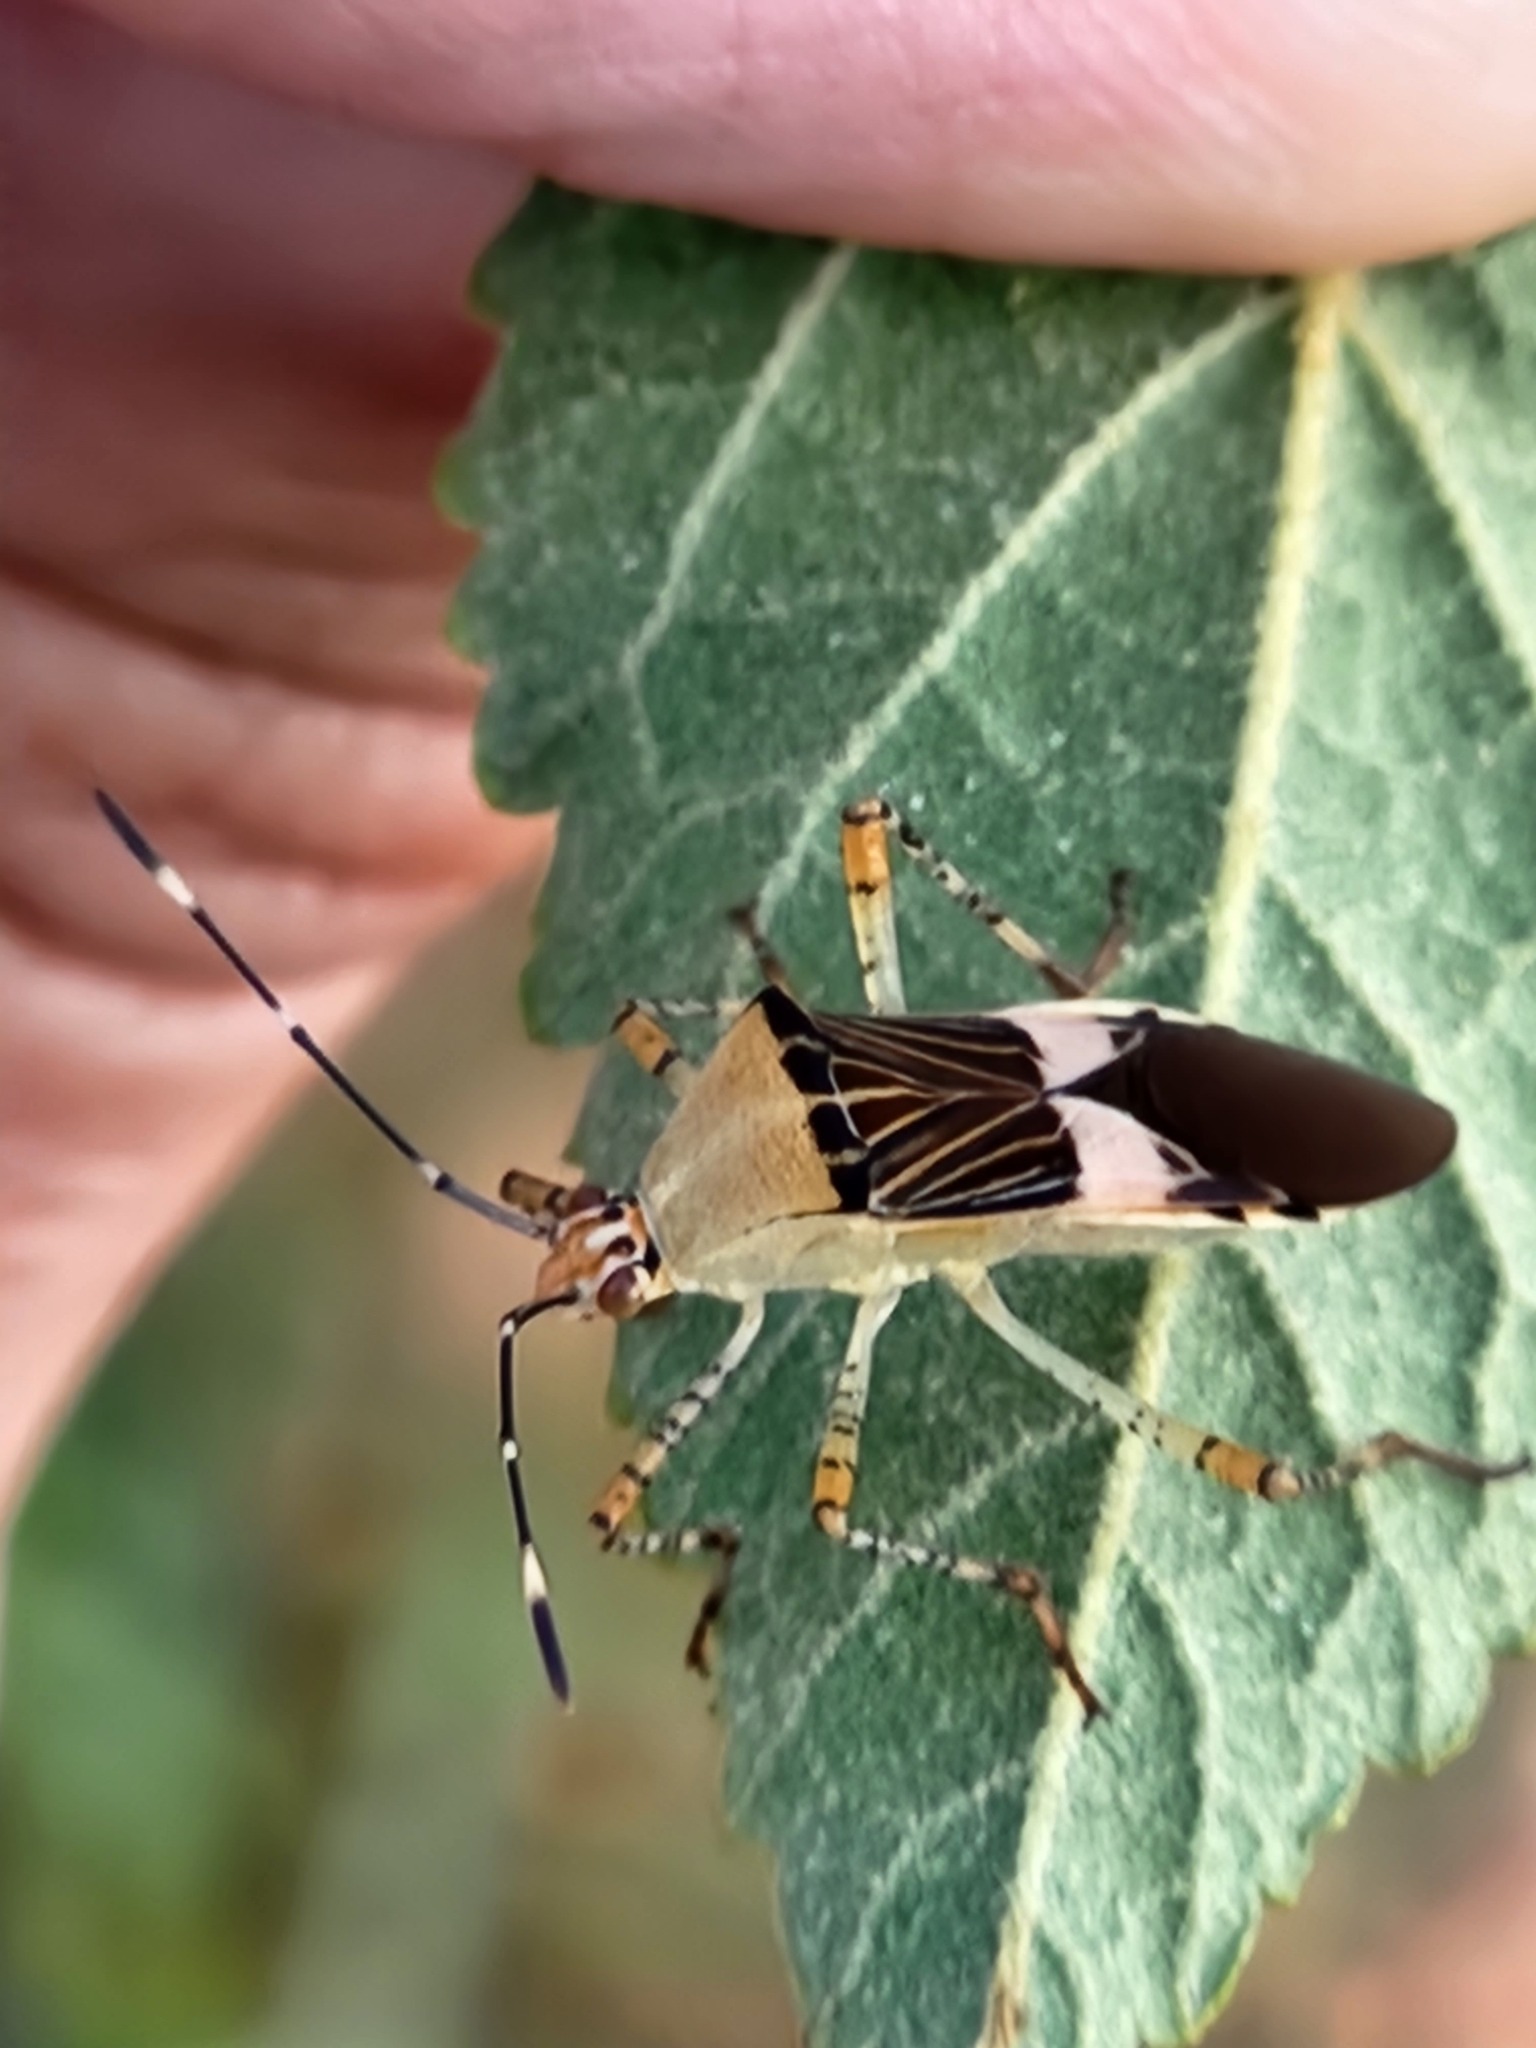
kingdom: Animalia
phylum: Arthropoda
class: Insecta
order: Hemiptera
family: Coreidae
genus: Hypselonotus
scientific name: Hypselonotus fulvus
